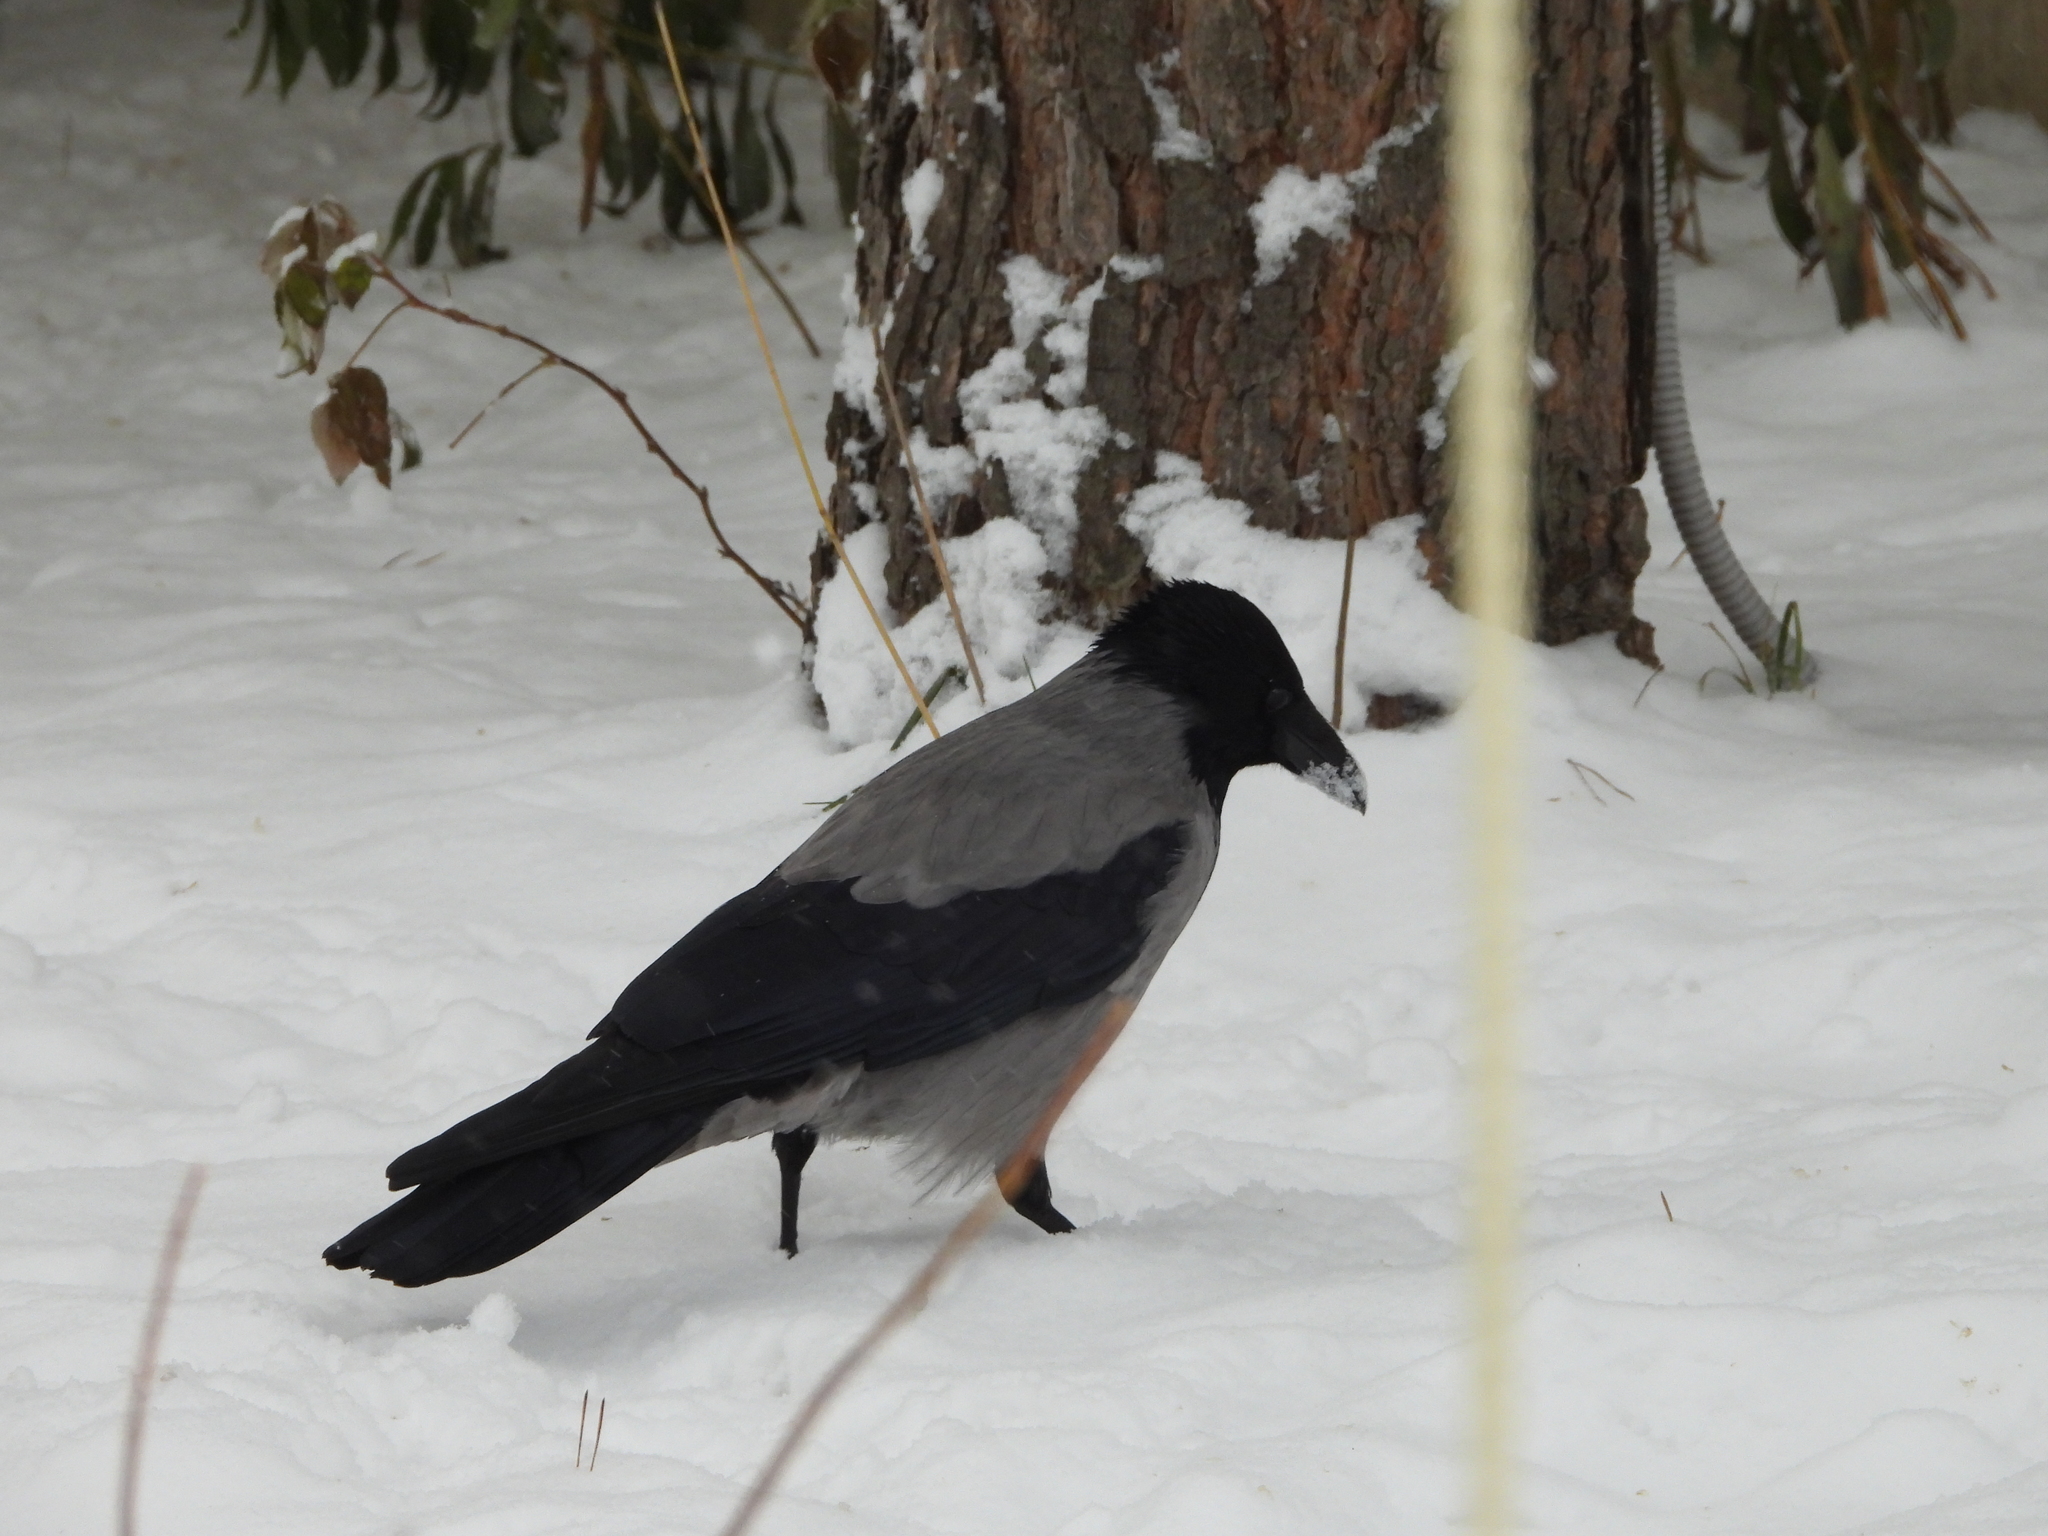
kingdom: Animalia
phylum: Chordata
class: Aves
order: Passeriformes
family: Corvidae
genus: Corvus
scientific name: Corvus cornix
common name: Hooded crow
